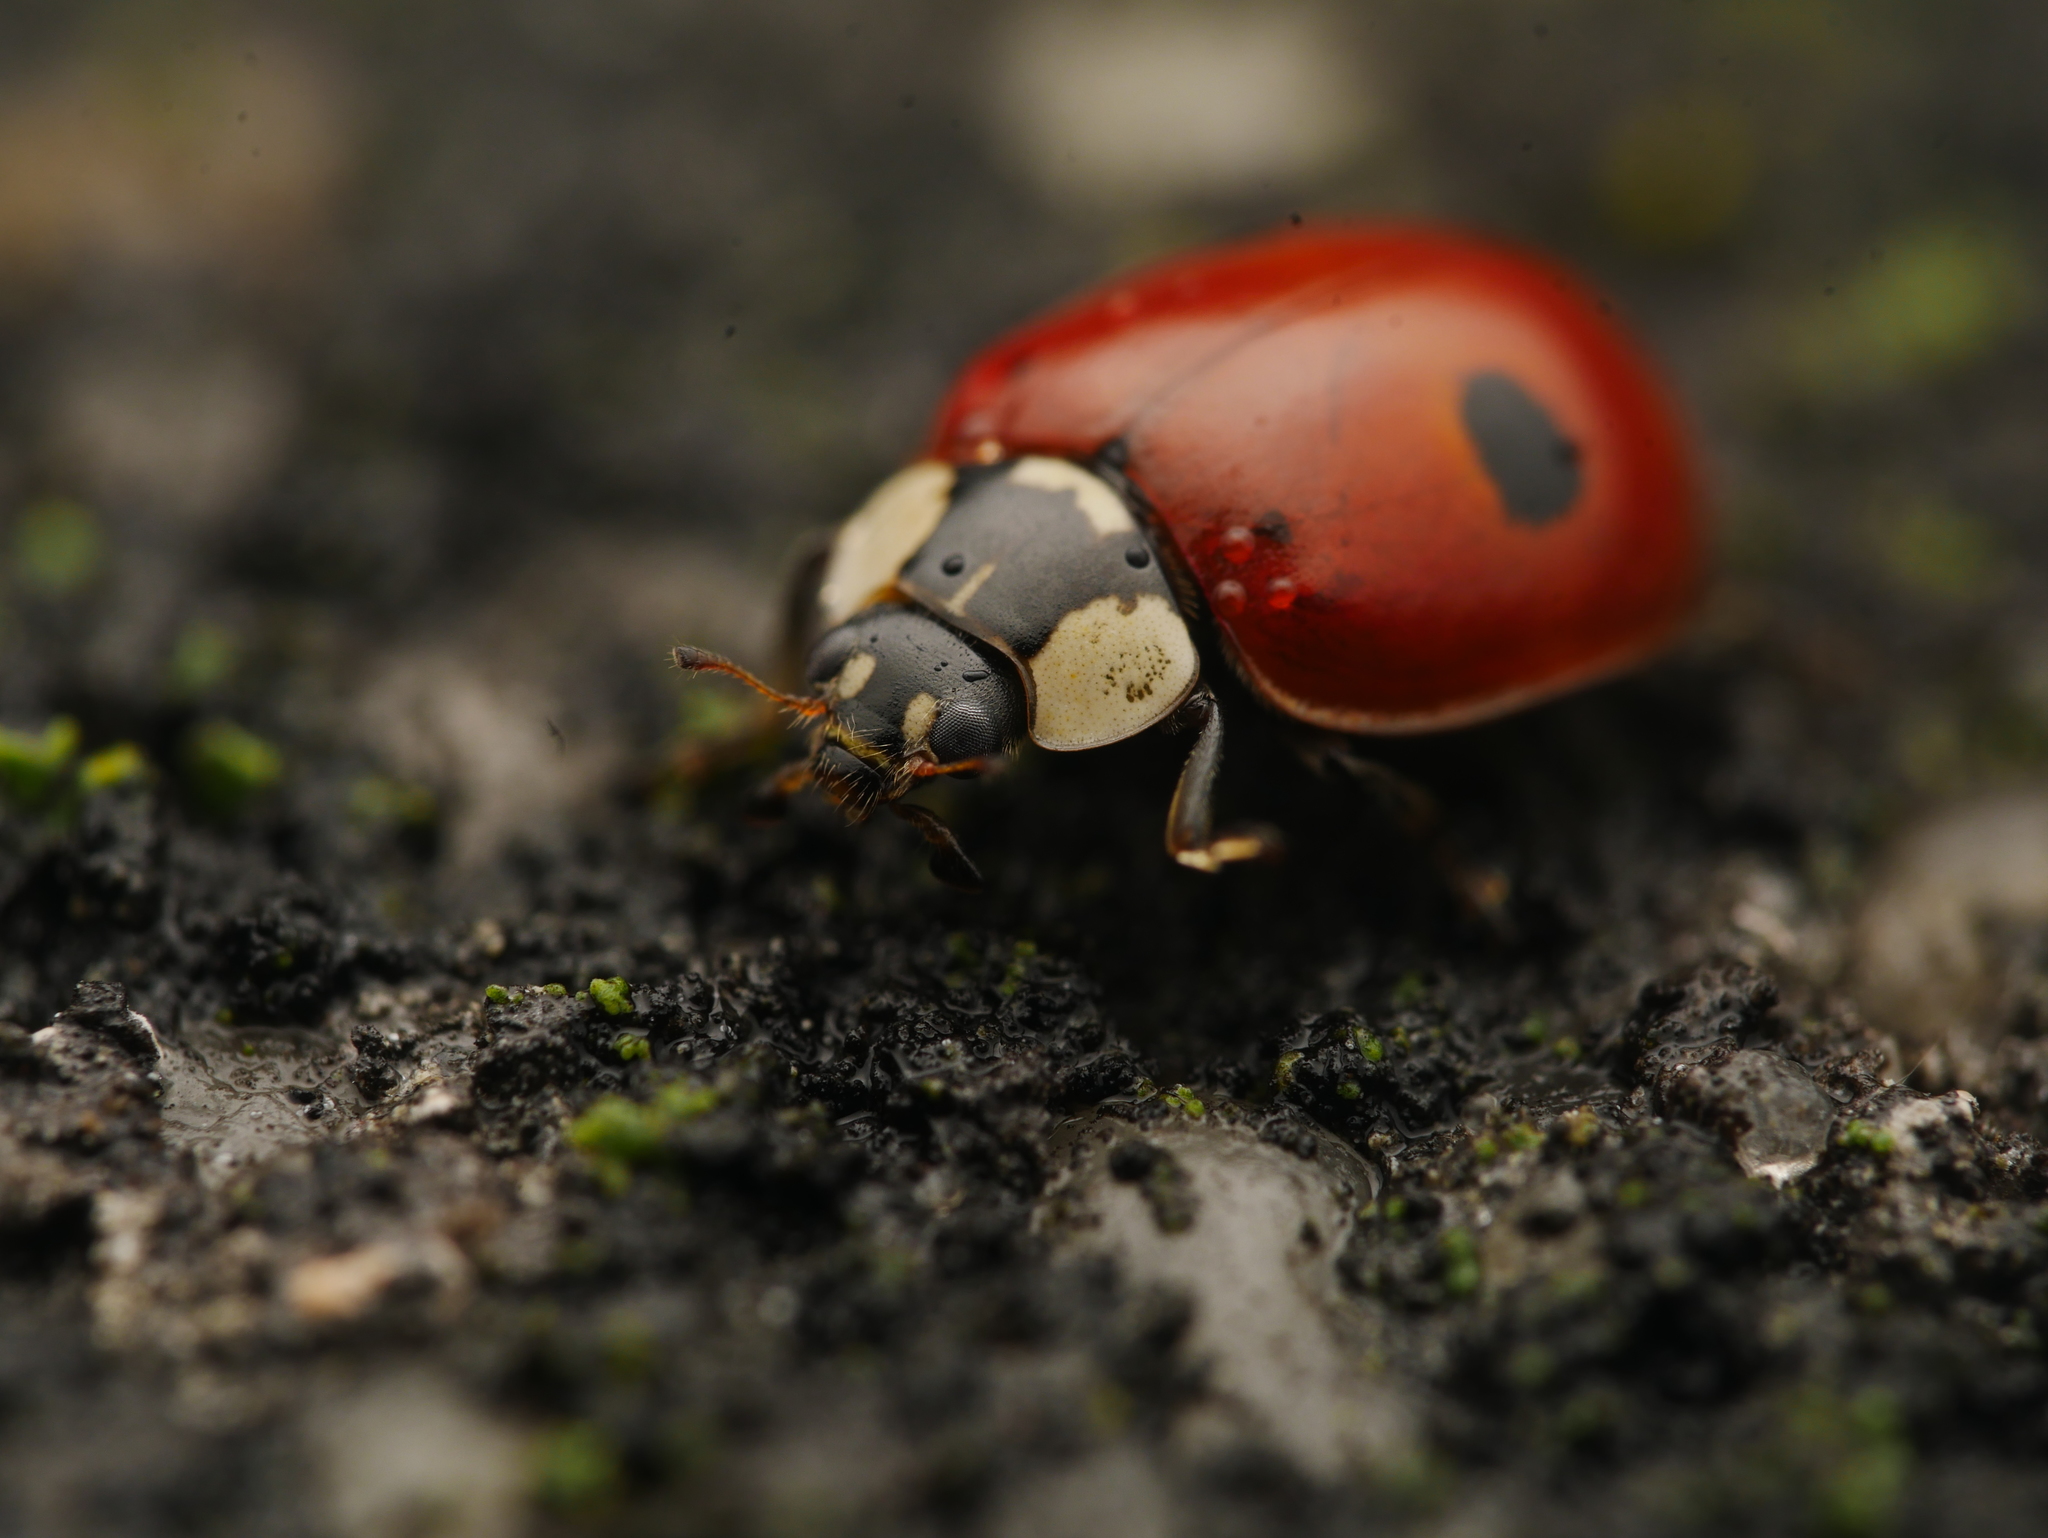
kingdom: Animalia
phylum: Arthropoda
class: Insecta
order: Coleoptera
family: Coccinellidae
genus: Adalia
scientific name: Adalia bipunctata
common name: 2-spot ladybird
